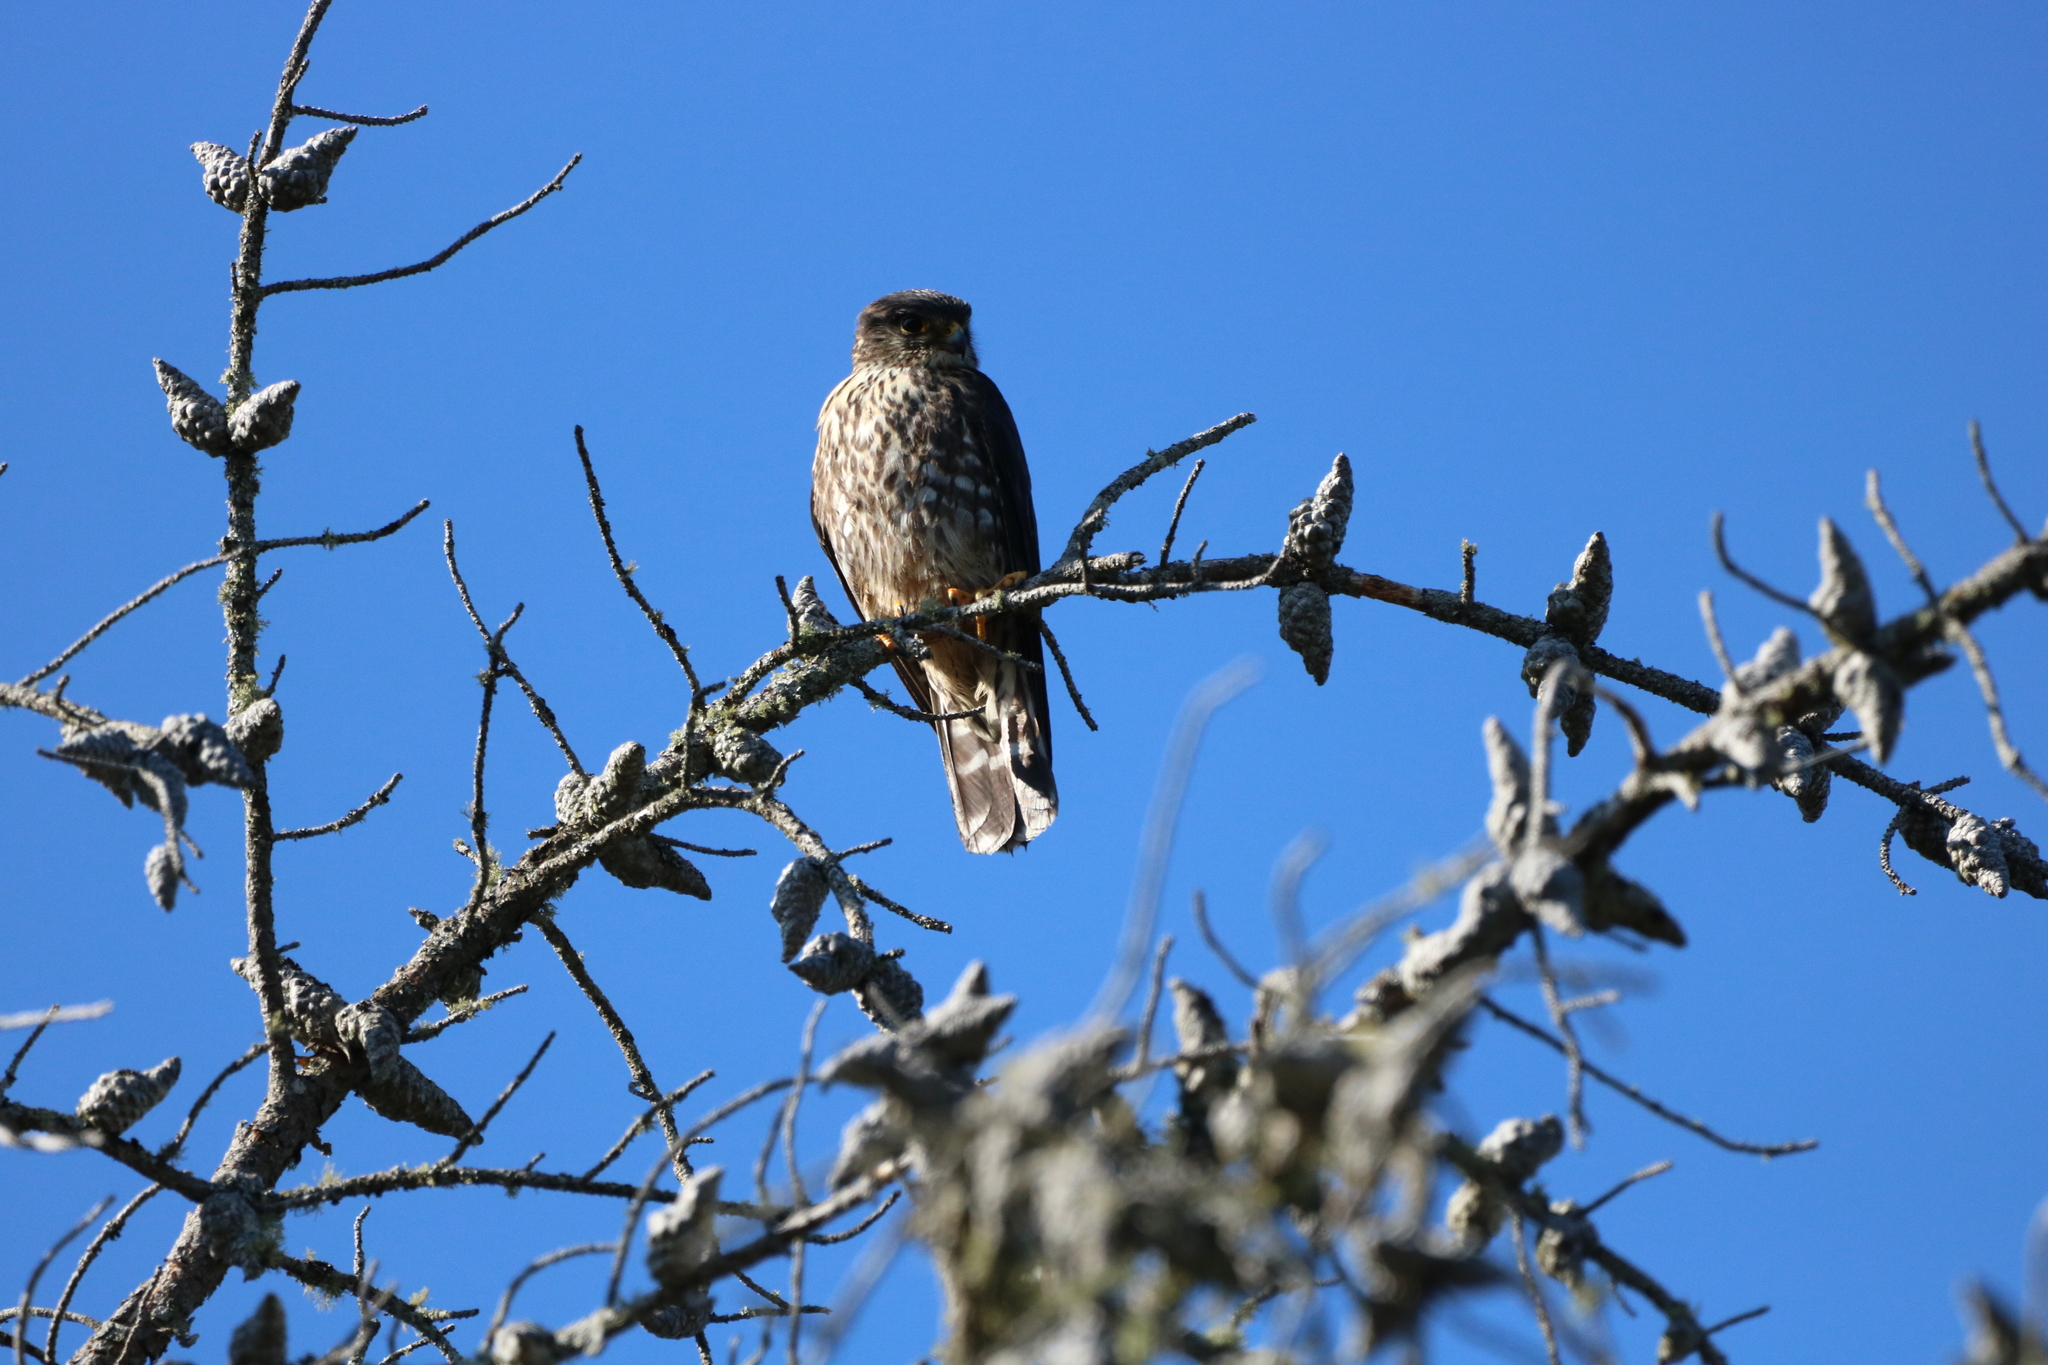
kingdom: Animalia
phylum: Chordata
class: Aves
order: Falconiformes
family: Falconidae
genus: Falco
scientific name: Falco columbarius
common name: Merlin
